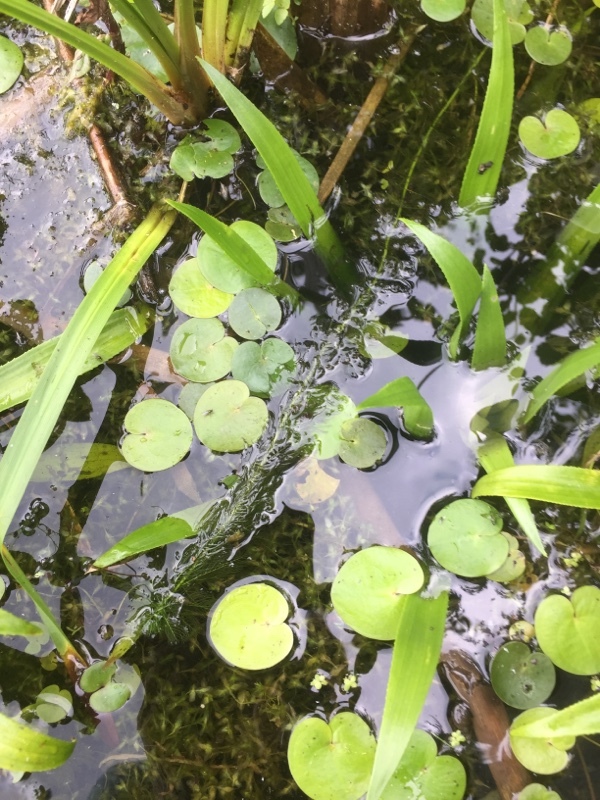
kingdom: Plantae
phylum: Tracheophyta
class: Liliopsida
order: Alismatales
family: Hydrocharitaceae
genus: Hydrocharis
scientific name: Hydrocharis morsus-ranae
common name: Frogbit
